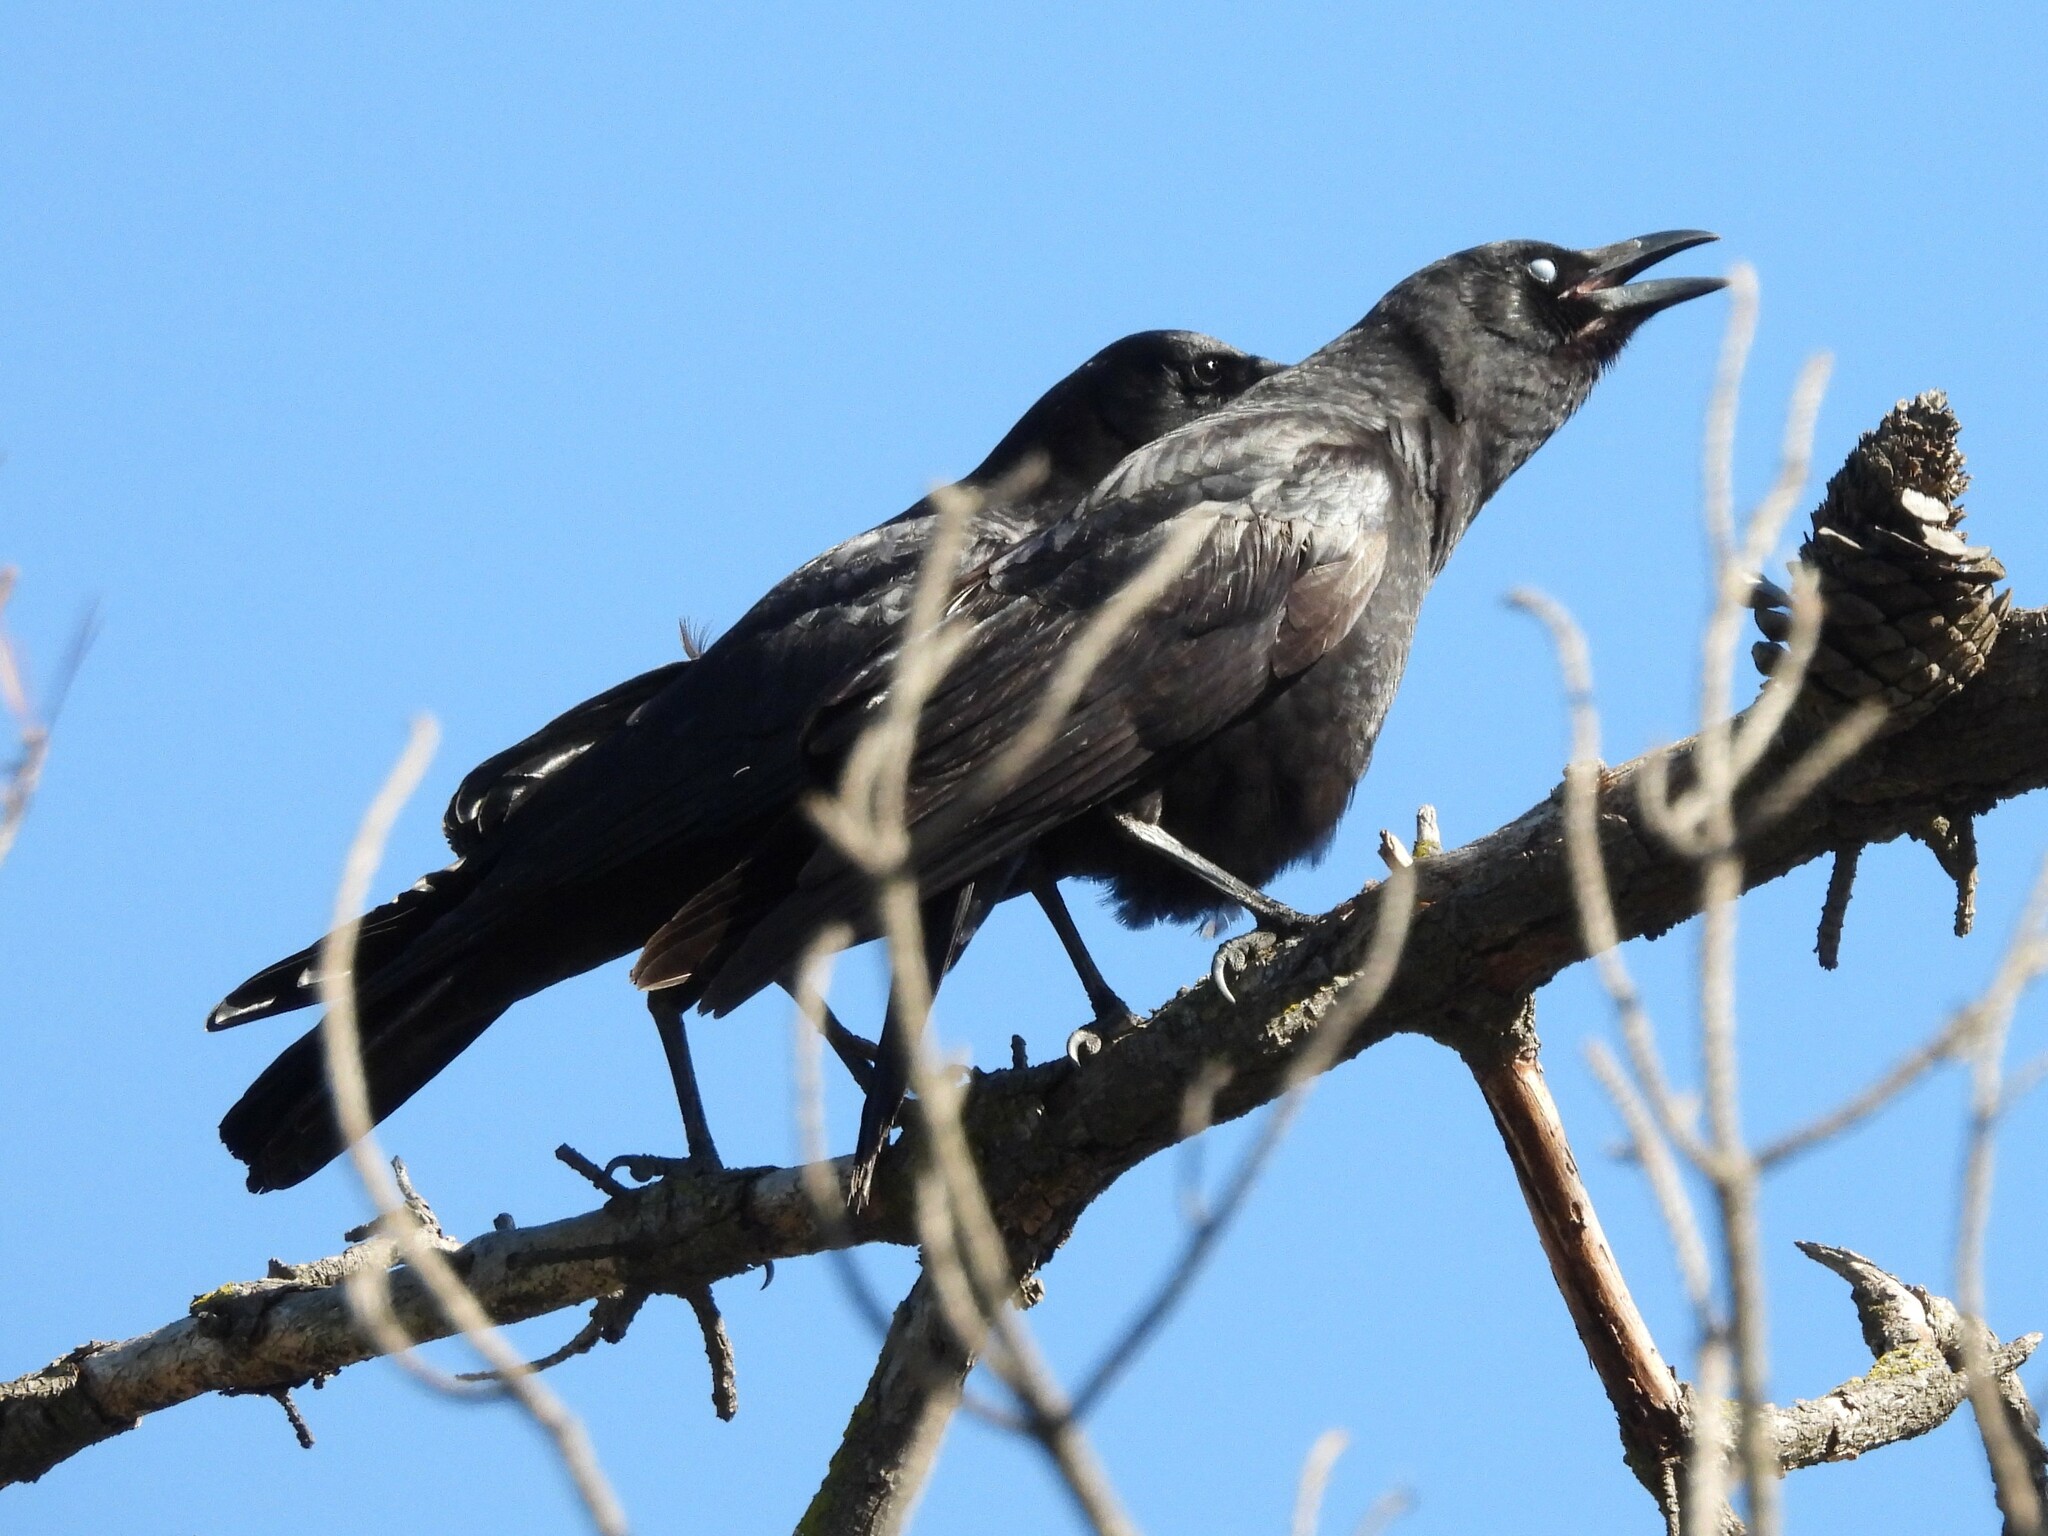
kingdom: Animalia
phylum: Chordata
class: Aves
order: Passeriformes
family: Corvidae
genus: Corvus
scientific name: Corvus brachyrhynchos
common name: American crow
